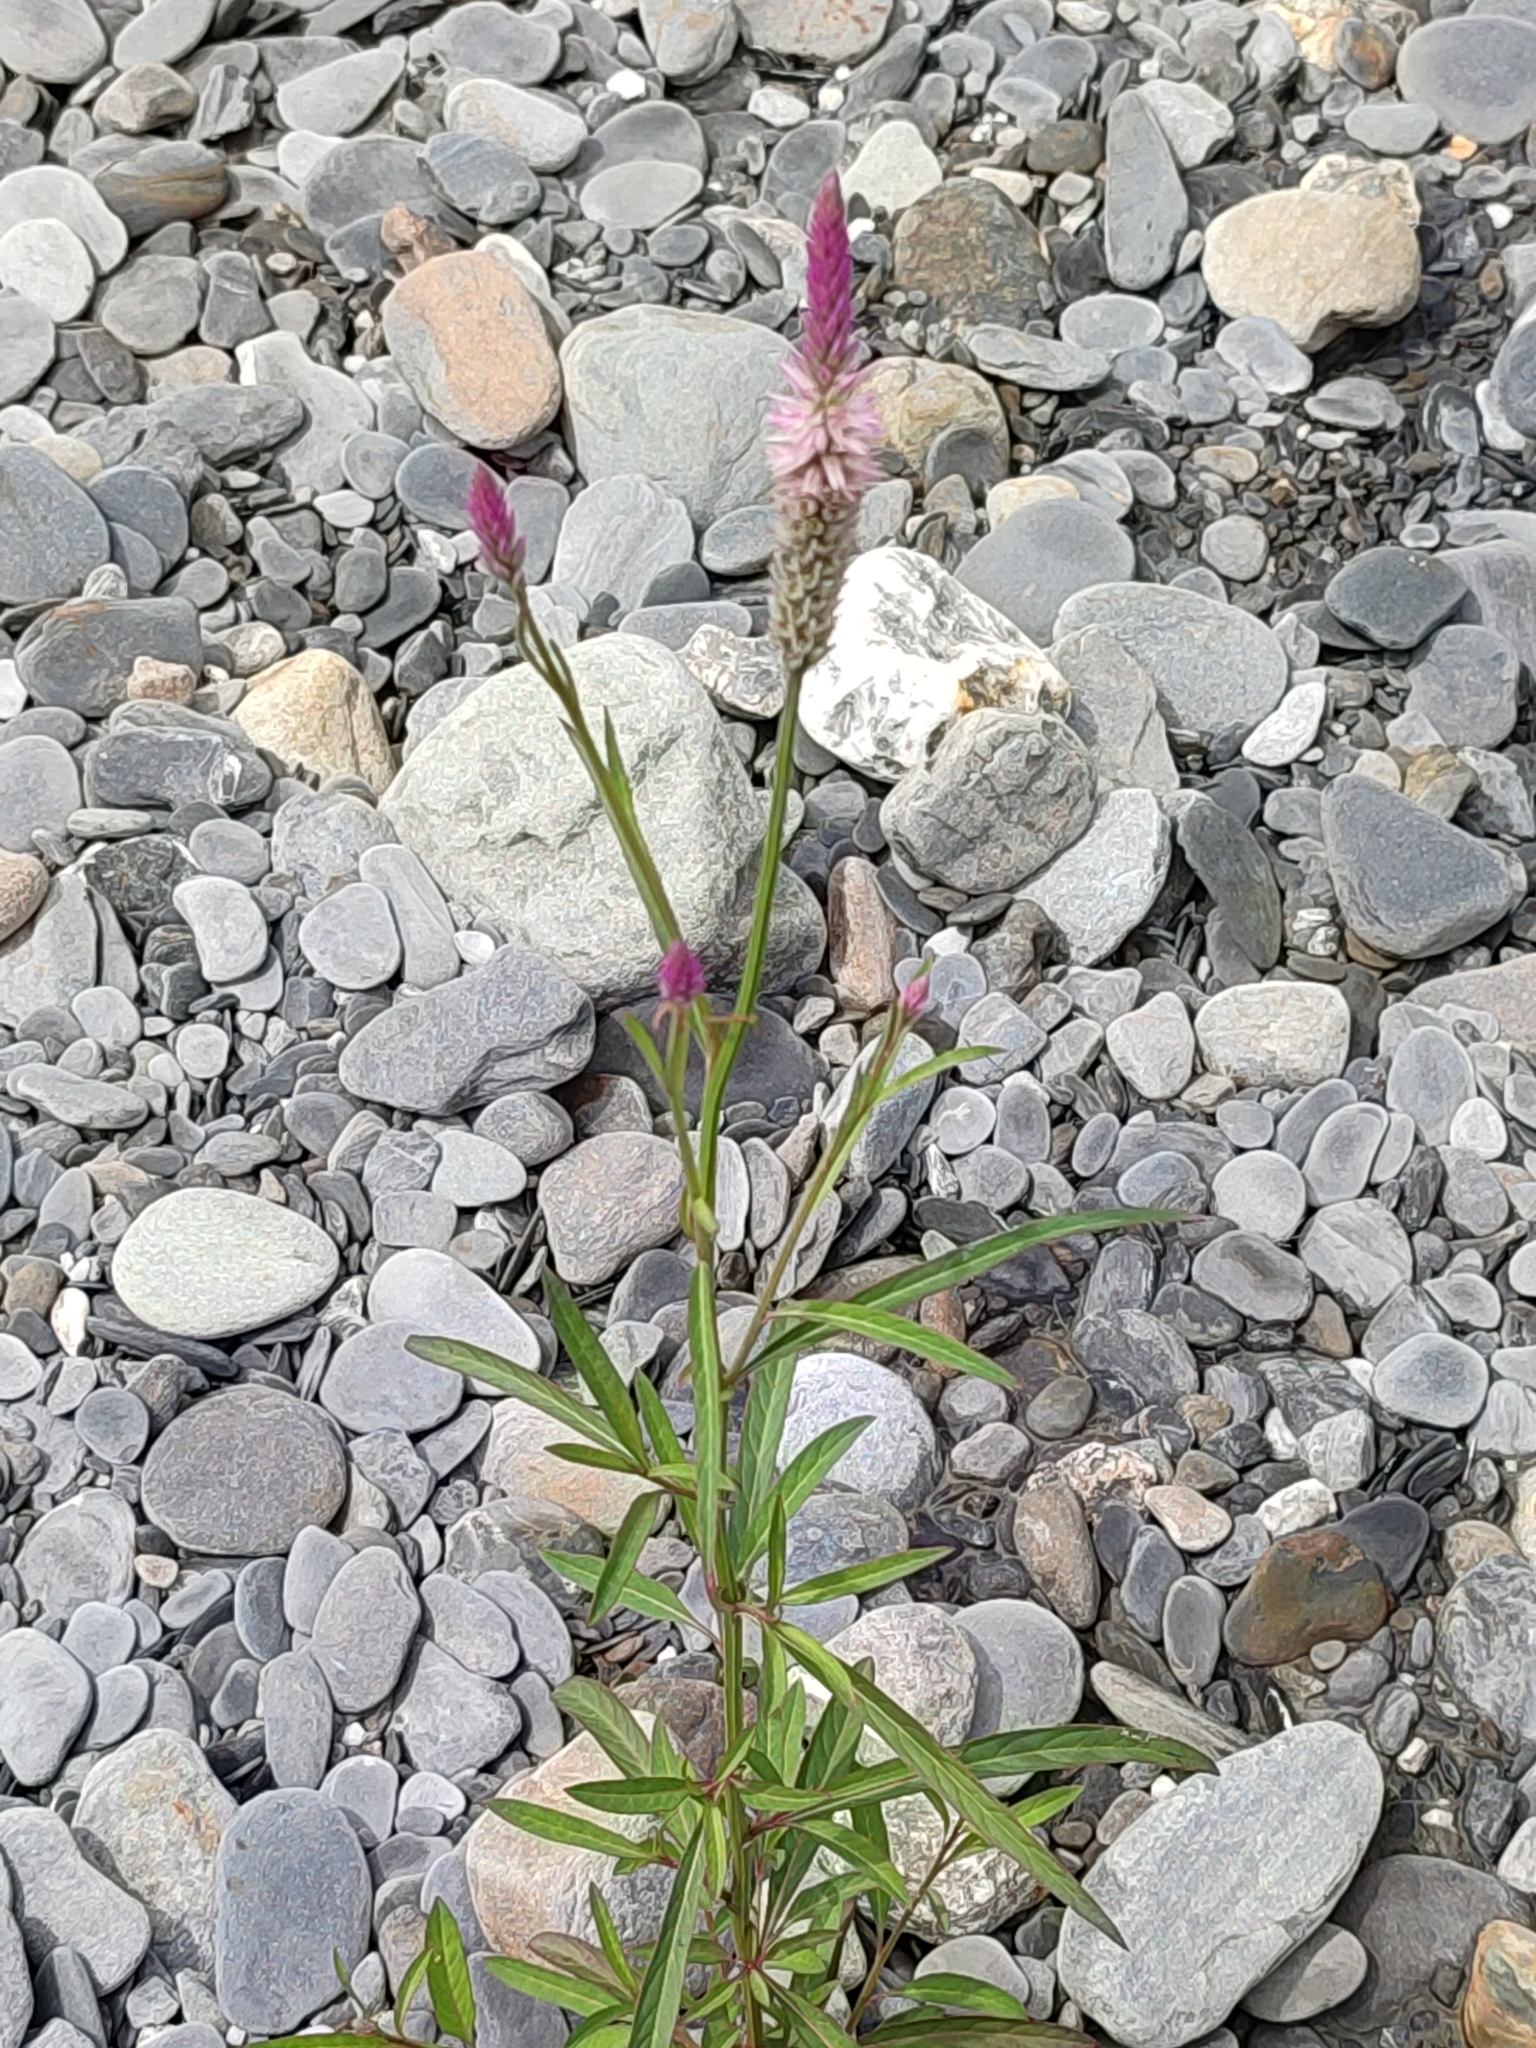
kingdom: Plantae
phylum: Tracheophyta
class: Magnoliopsida
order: Caryophyllales
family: Amaranthaceae
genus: Celosia
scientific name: Celosia argentea
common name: Feather cockscomb
